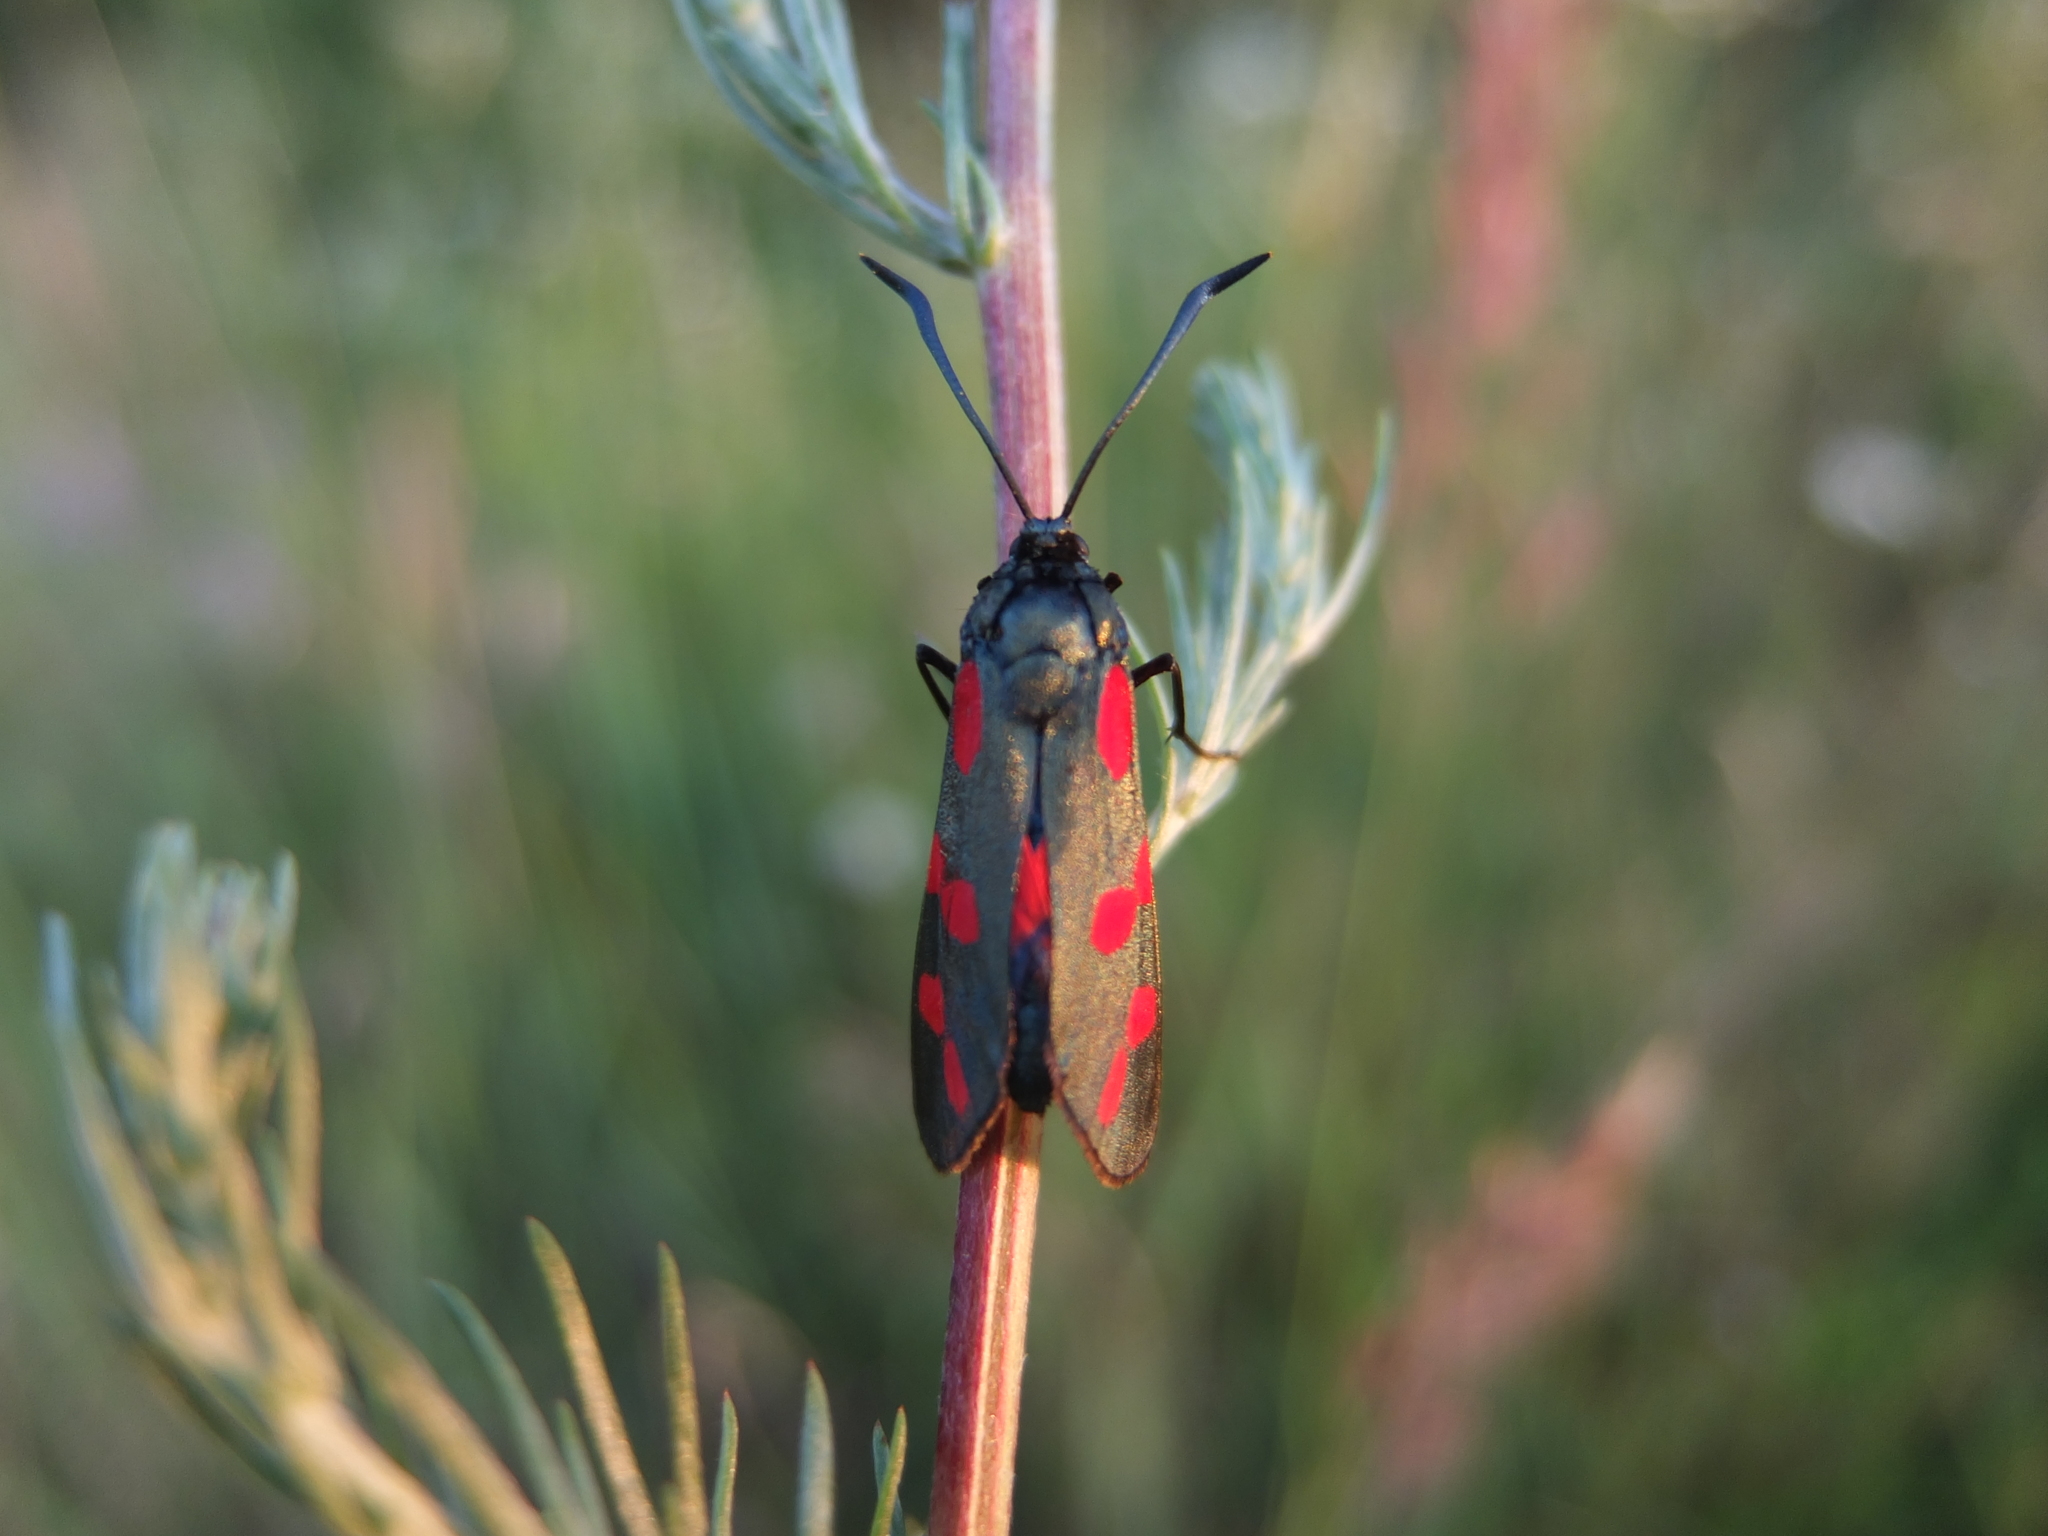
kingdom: Animalia
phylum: Arthropoda
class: Insecta
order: Lepidoptera
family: Zygaenidae
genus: Zygaena
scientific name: Zygaena filipendulae
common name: Six-spot burnet
